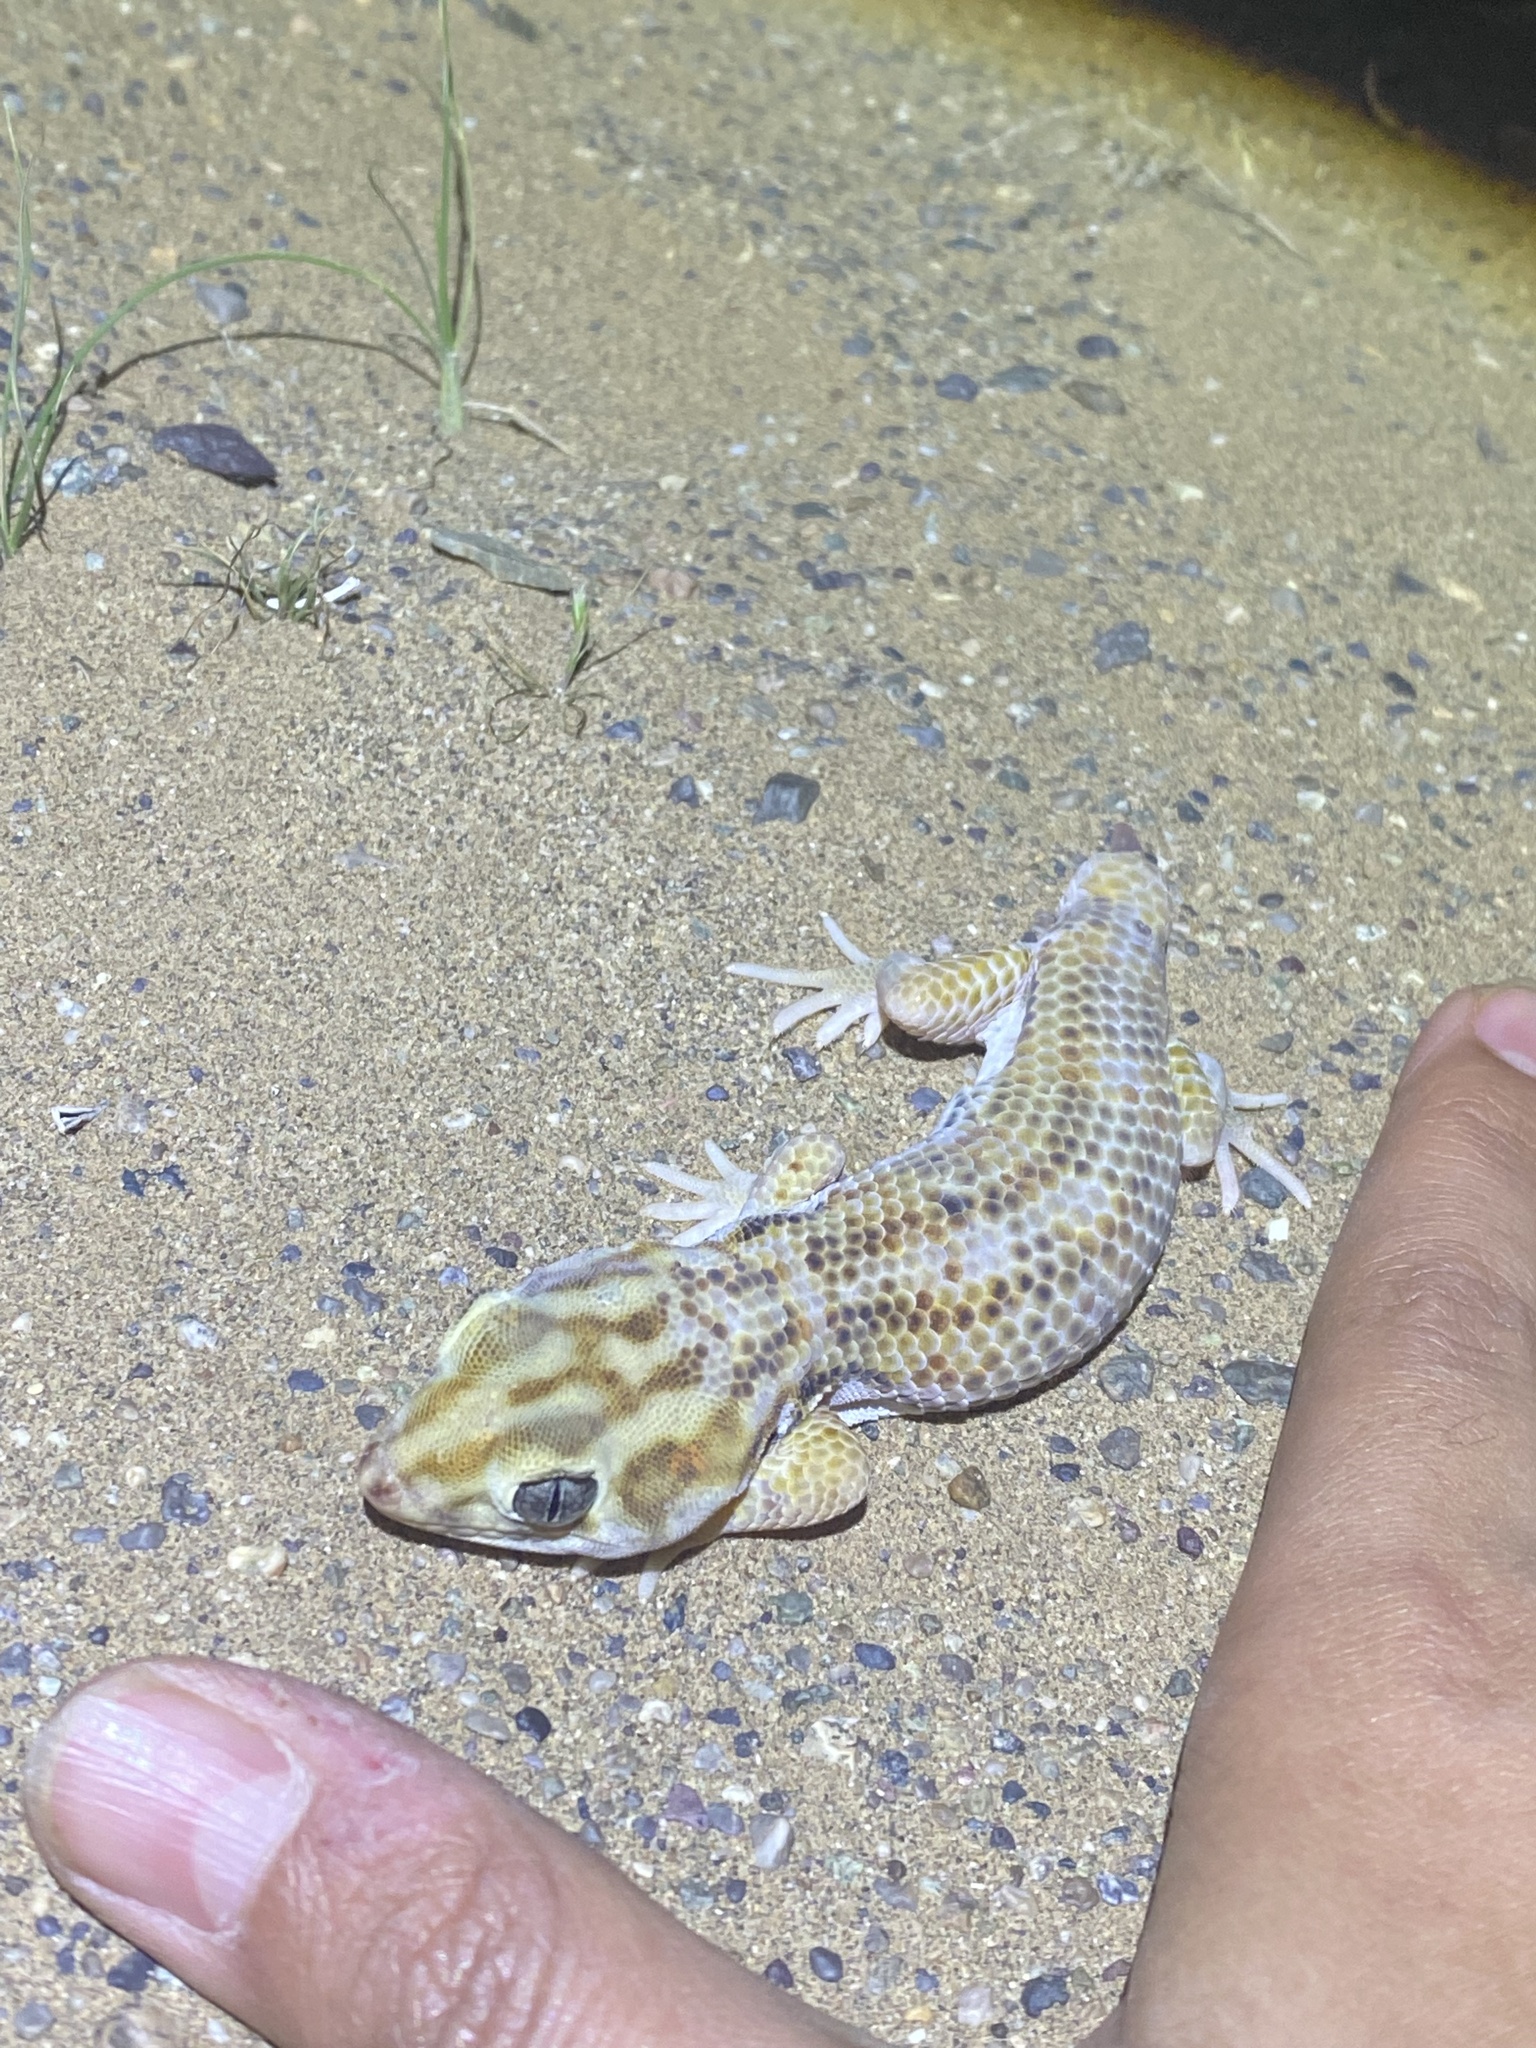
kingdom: Animalia
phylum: Chordata
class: Squamata
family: Sphaerodactylidae
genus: Teratoscincus
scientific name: Teratoscincus keyserlingii
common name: Frog-eyed gecko
